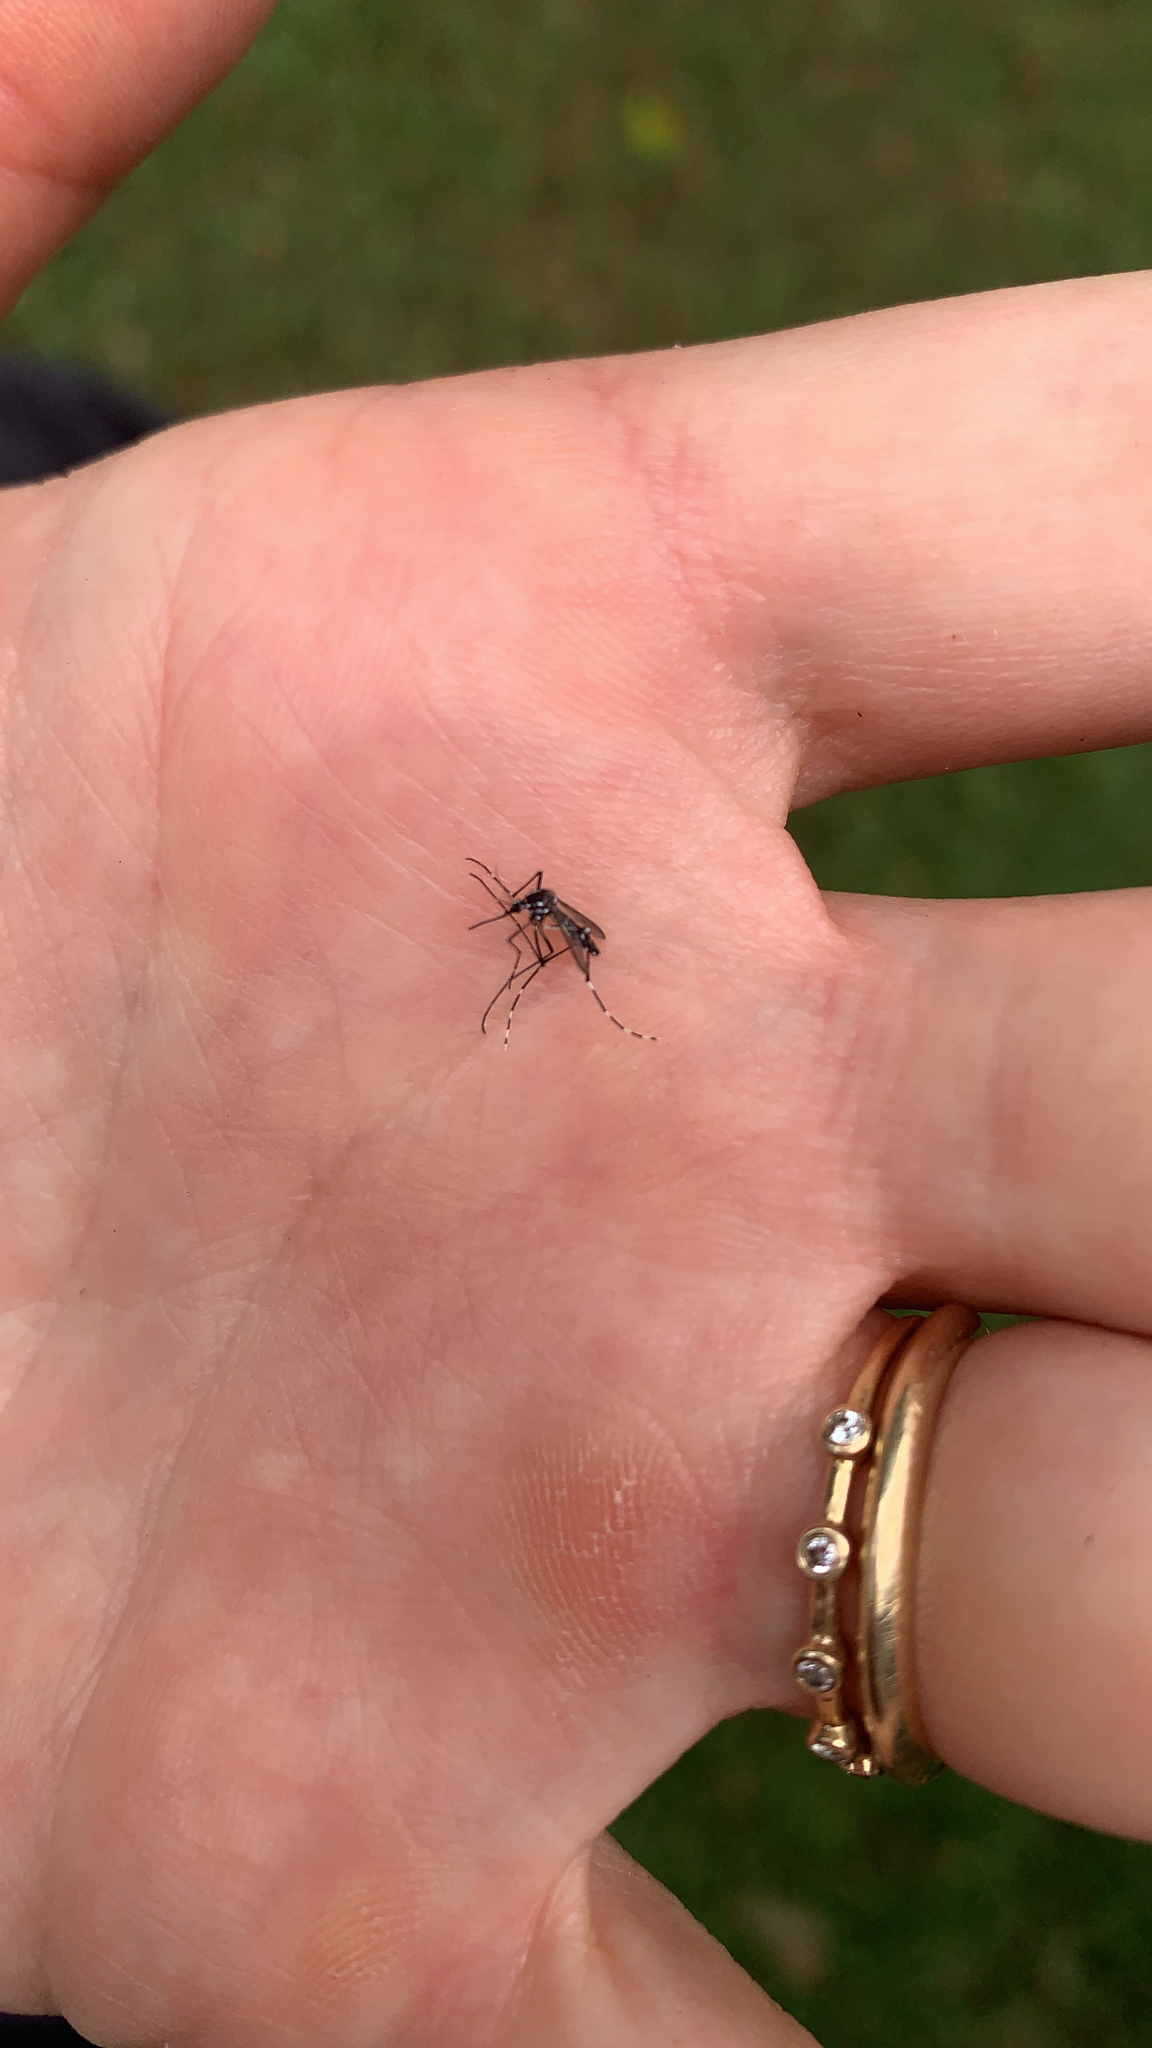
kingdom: Animalia
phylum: Arthropoda
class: Insecta
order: Diptera
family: Culicidae
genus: Aedes
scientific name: Aedes albopictus
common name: Tiger mosquito
